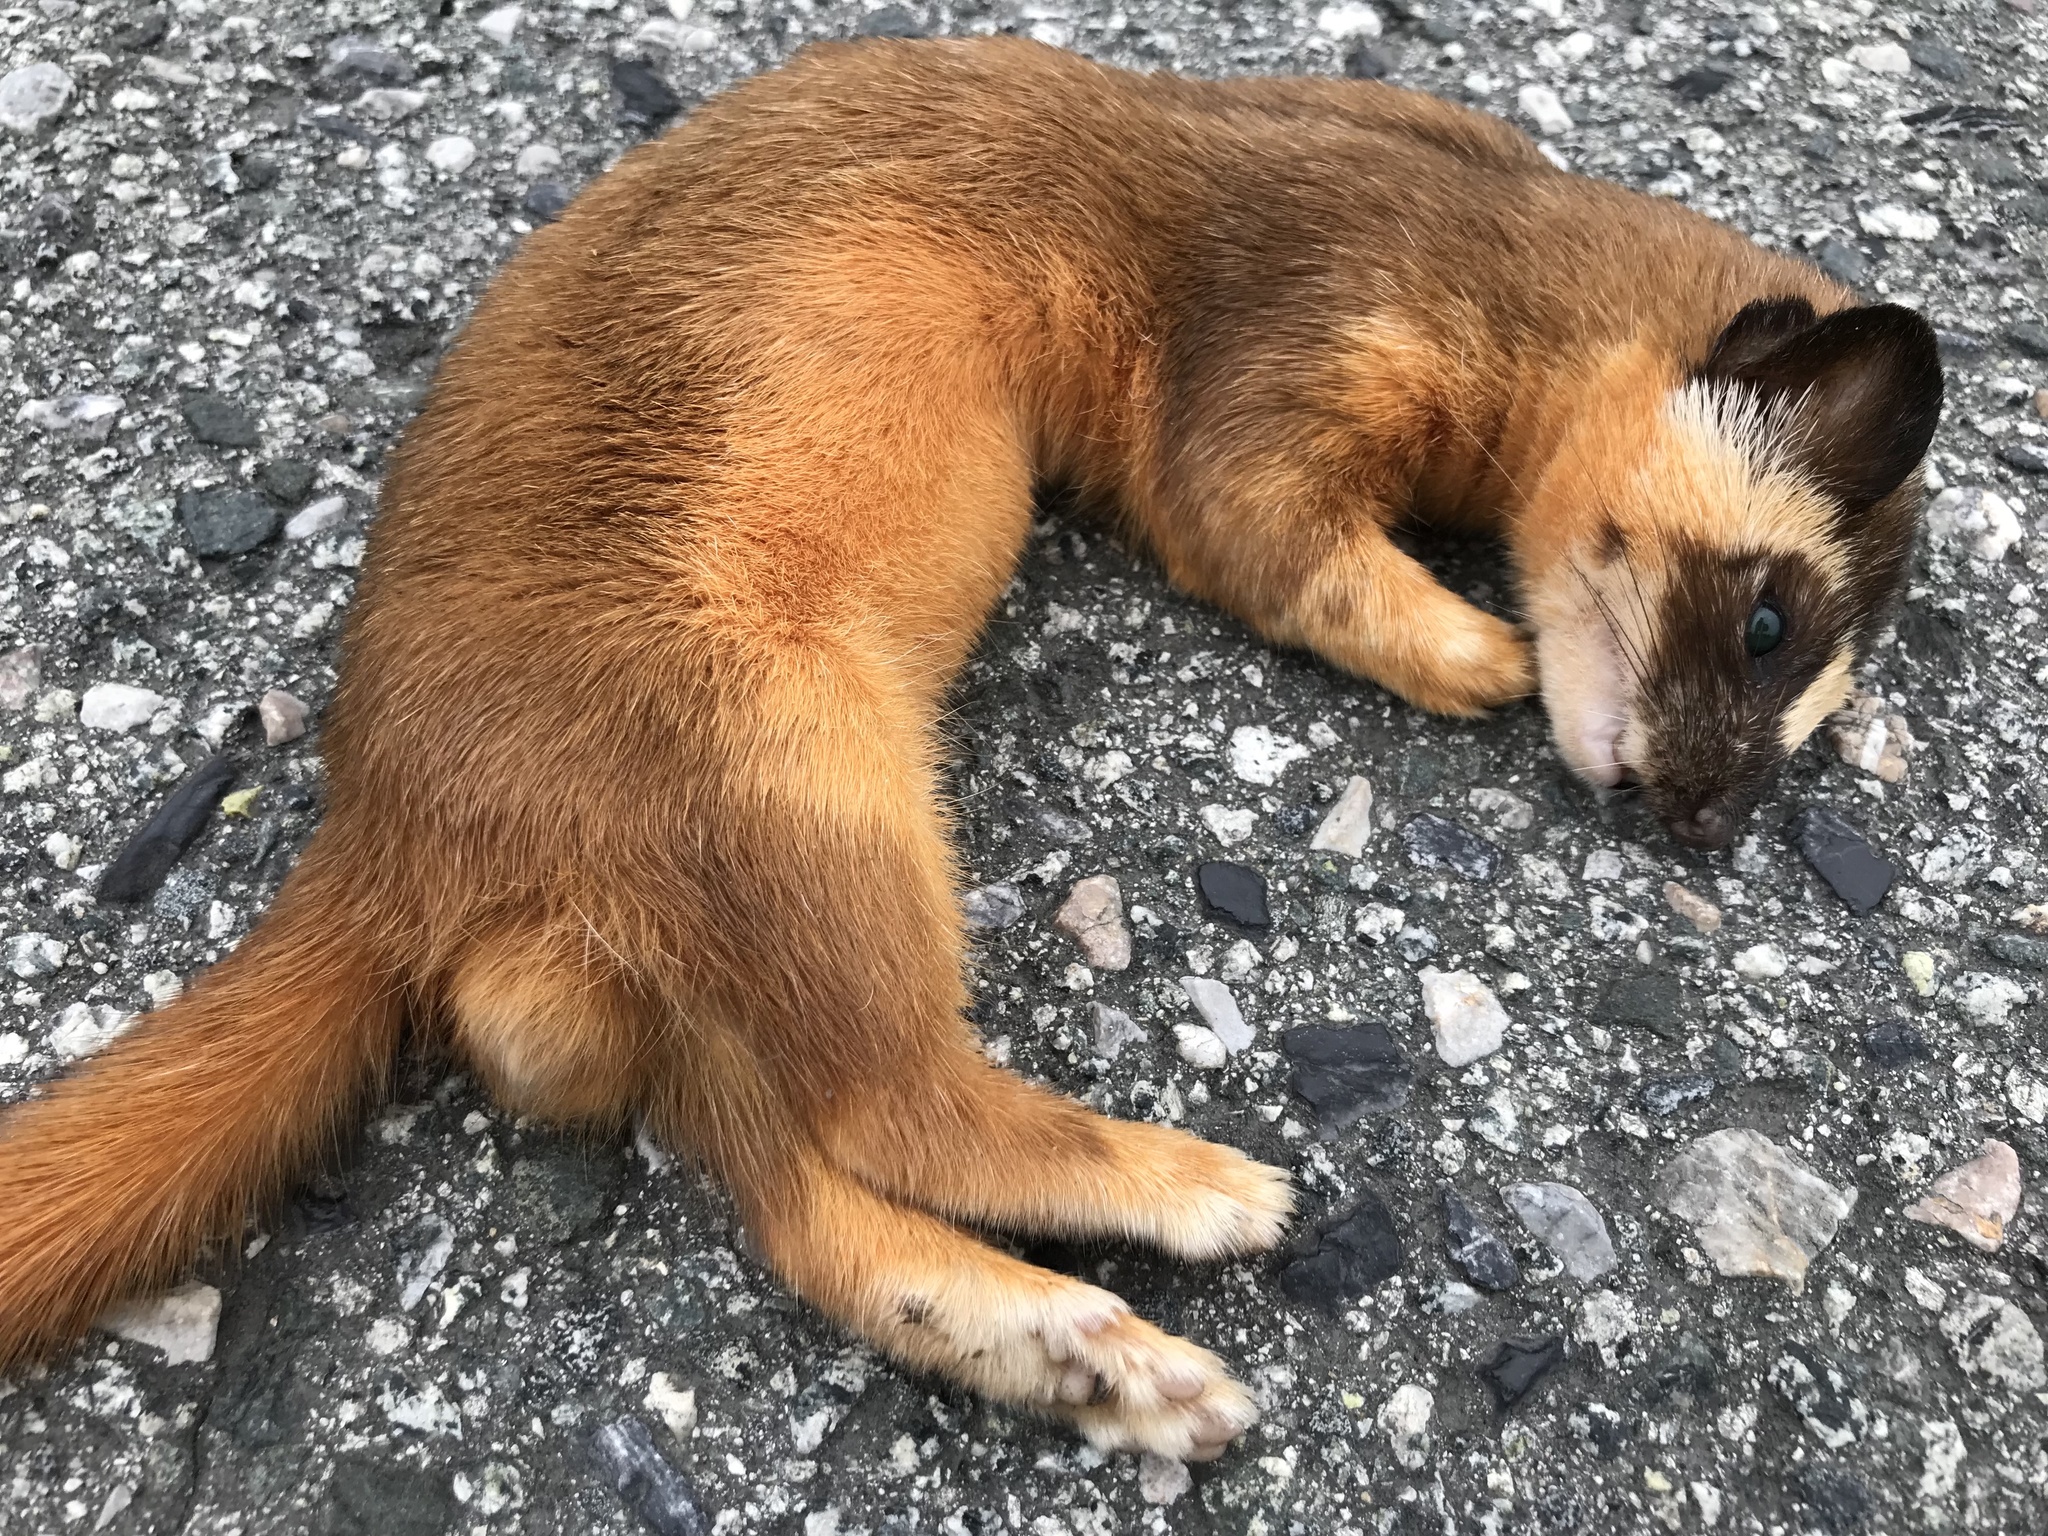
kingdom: Animalia
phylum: Chordata
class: Mammalia
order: Carnivora
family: Mustelidae
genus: Mustela
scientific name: Mustela
